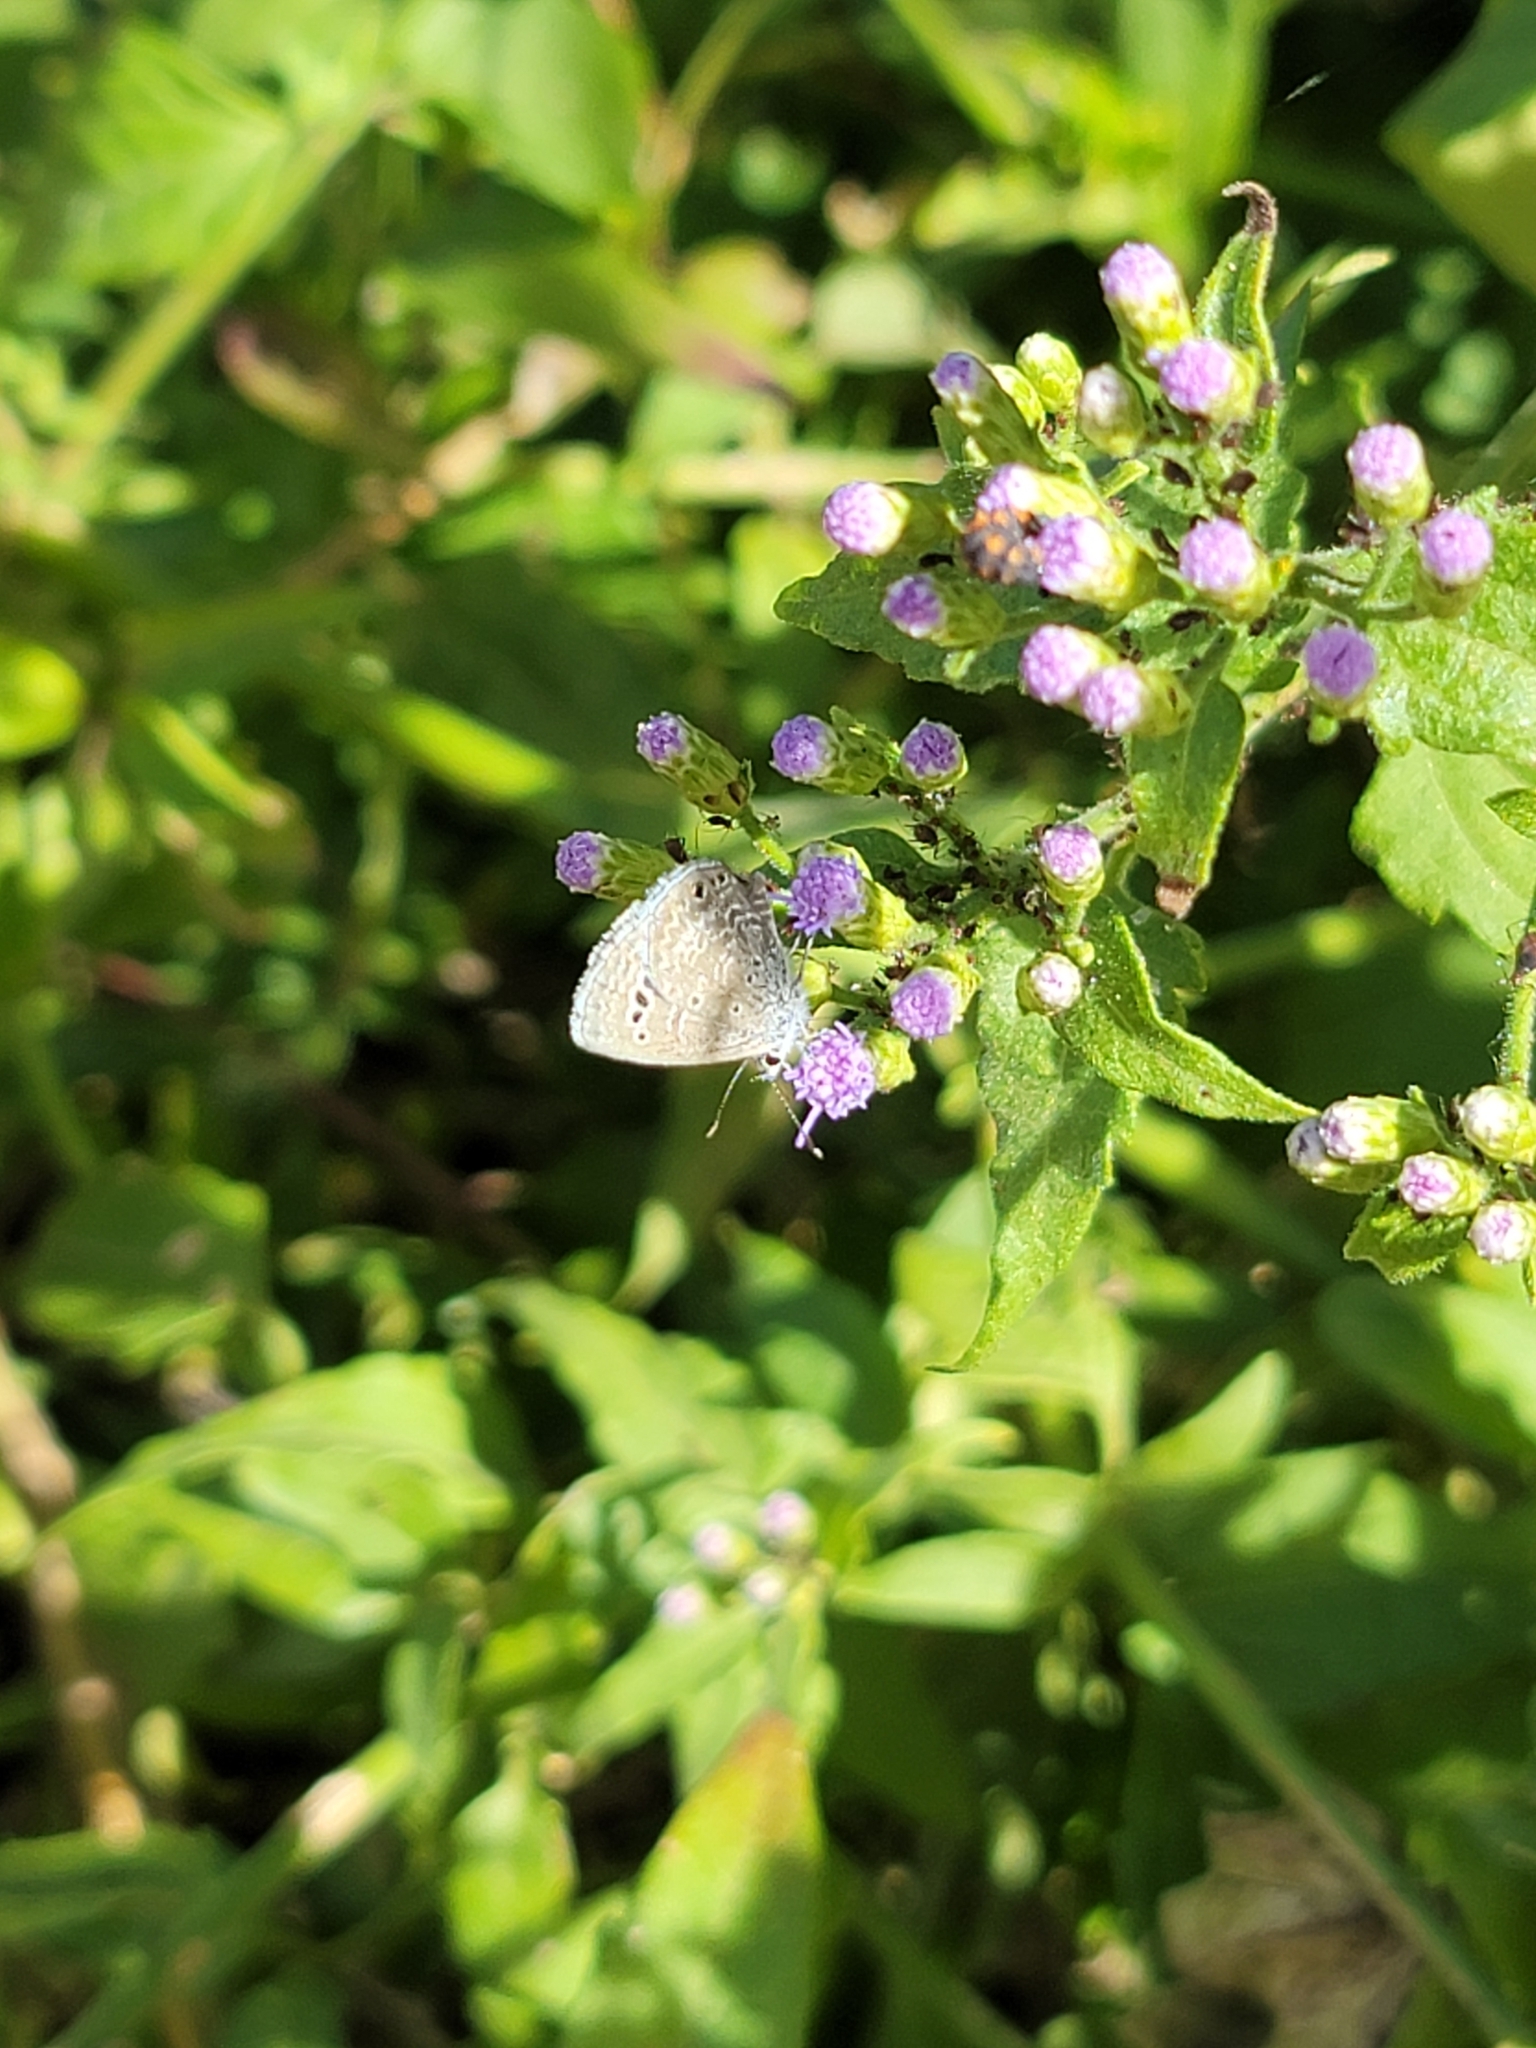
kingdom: Animalia
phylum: Arthropoda
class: Insecta
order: Lepidoptera
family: Lycaenidae
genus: Echinargus
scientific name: Echinargus isola
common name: Reakirt's blue
